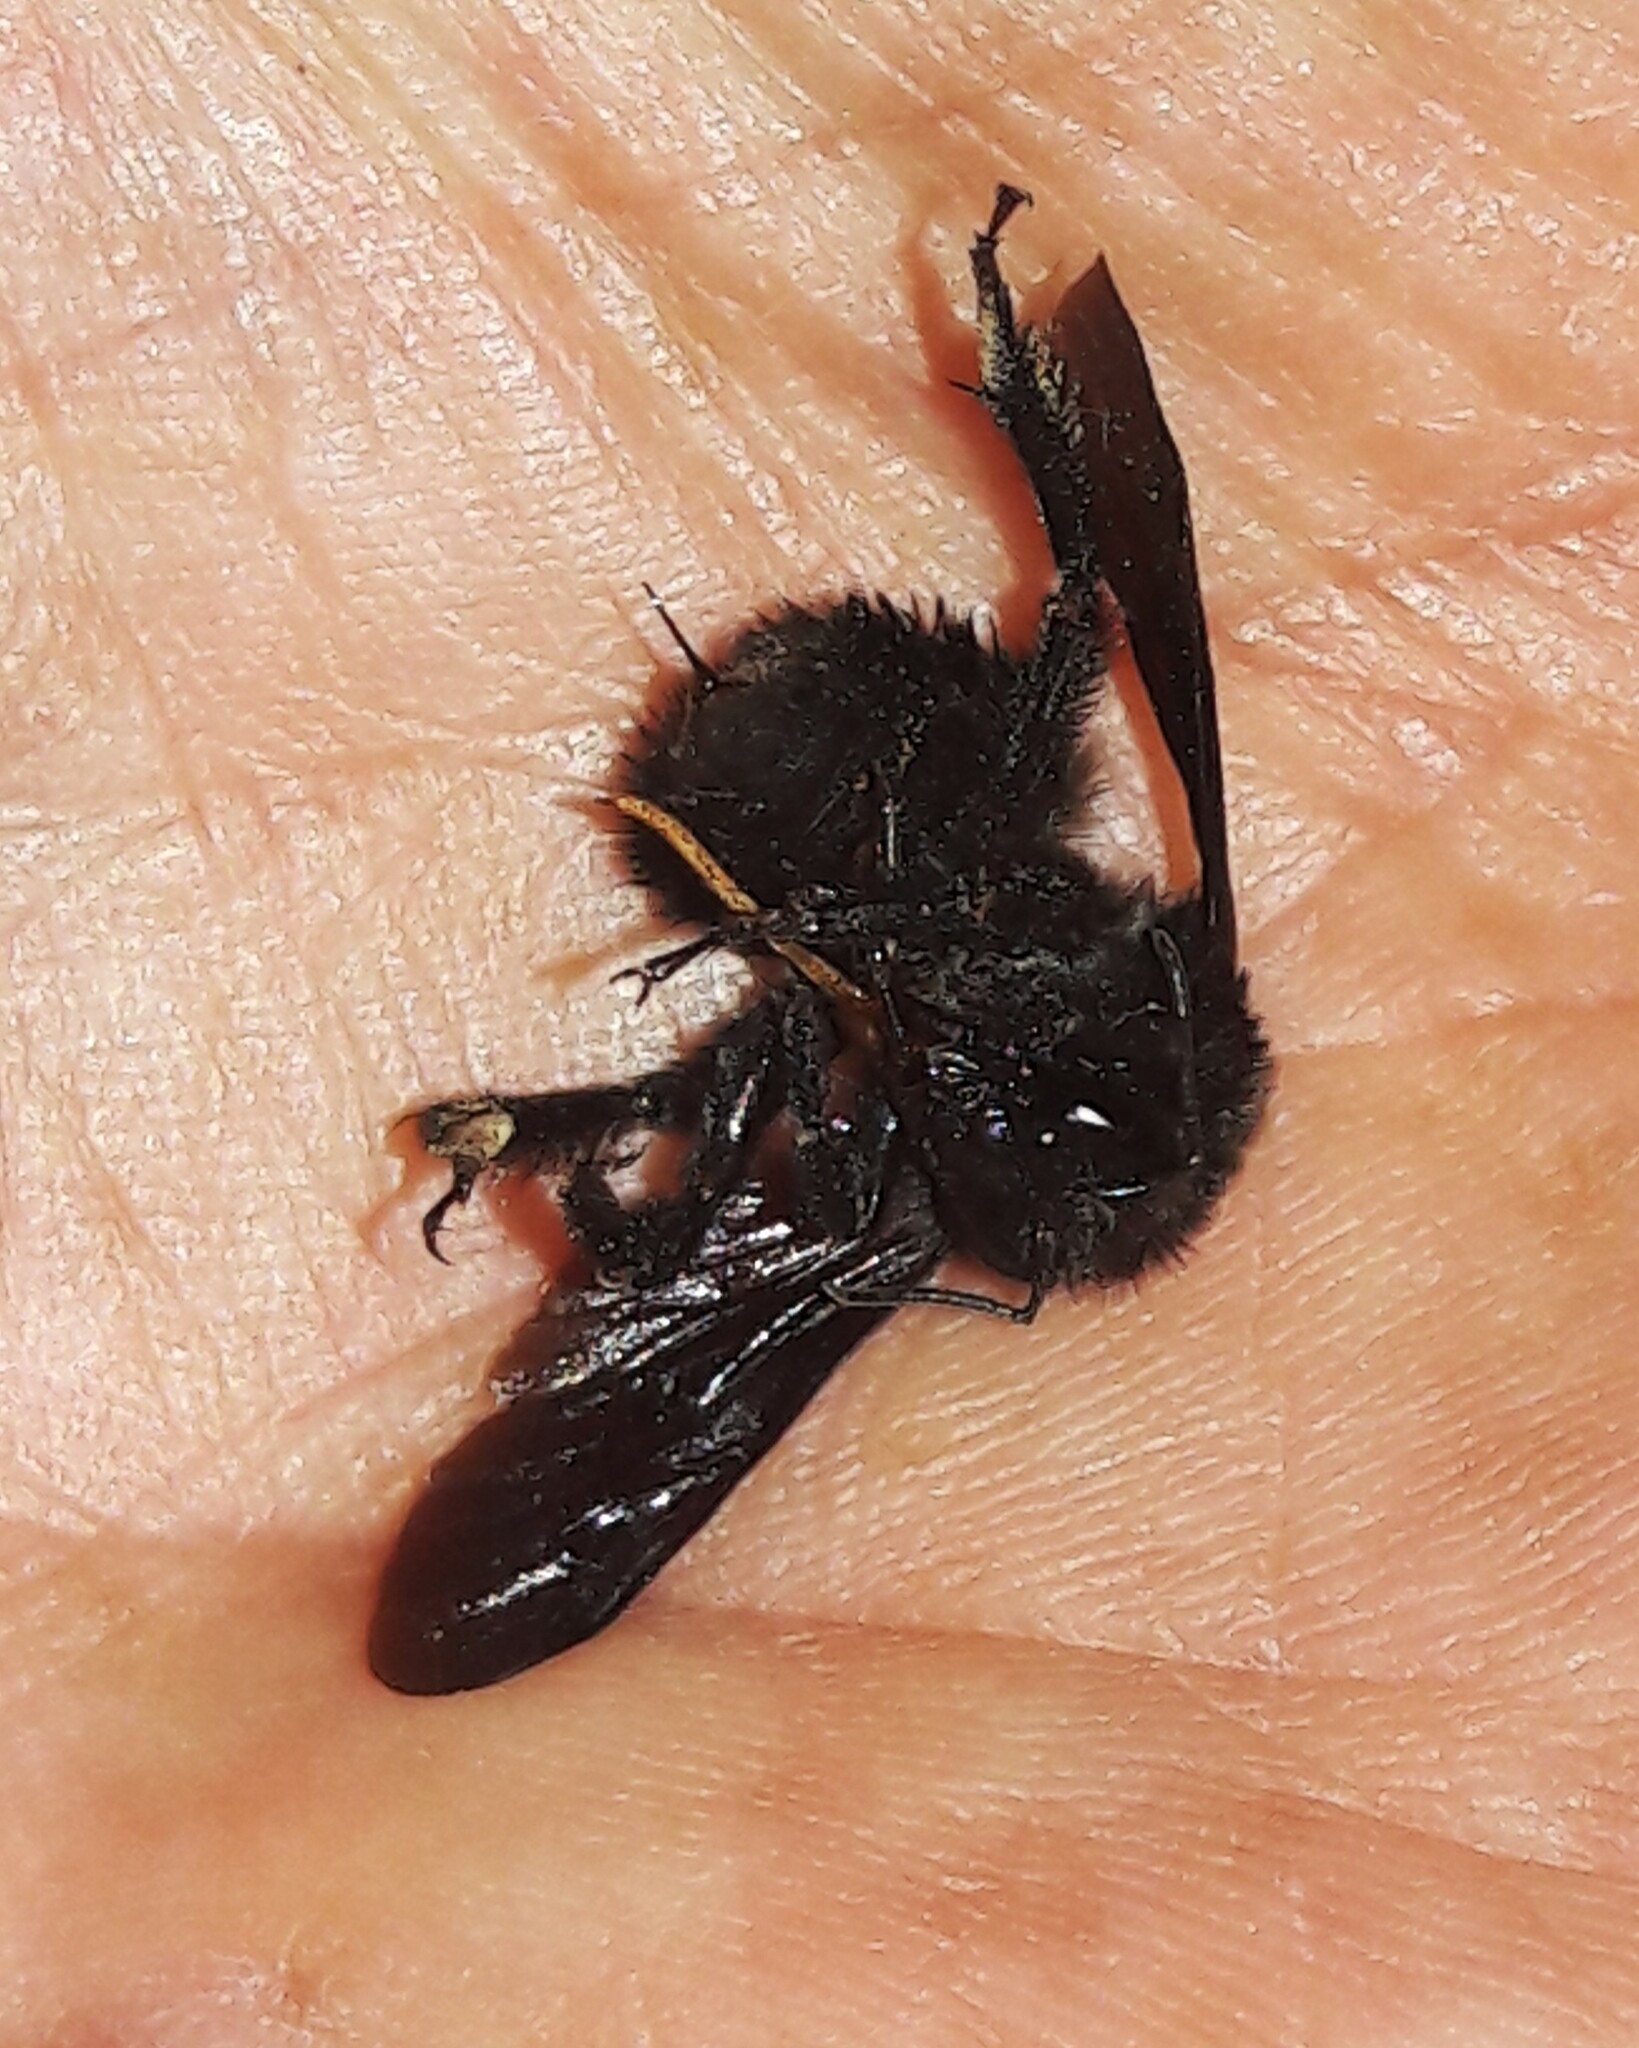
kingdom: Animalia
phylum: Arthropoda
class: Insecta
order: Hymenoptera
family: Apidae
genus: Bombus
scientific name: Bombus morio
